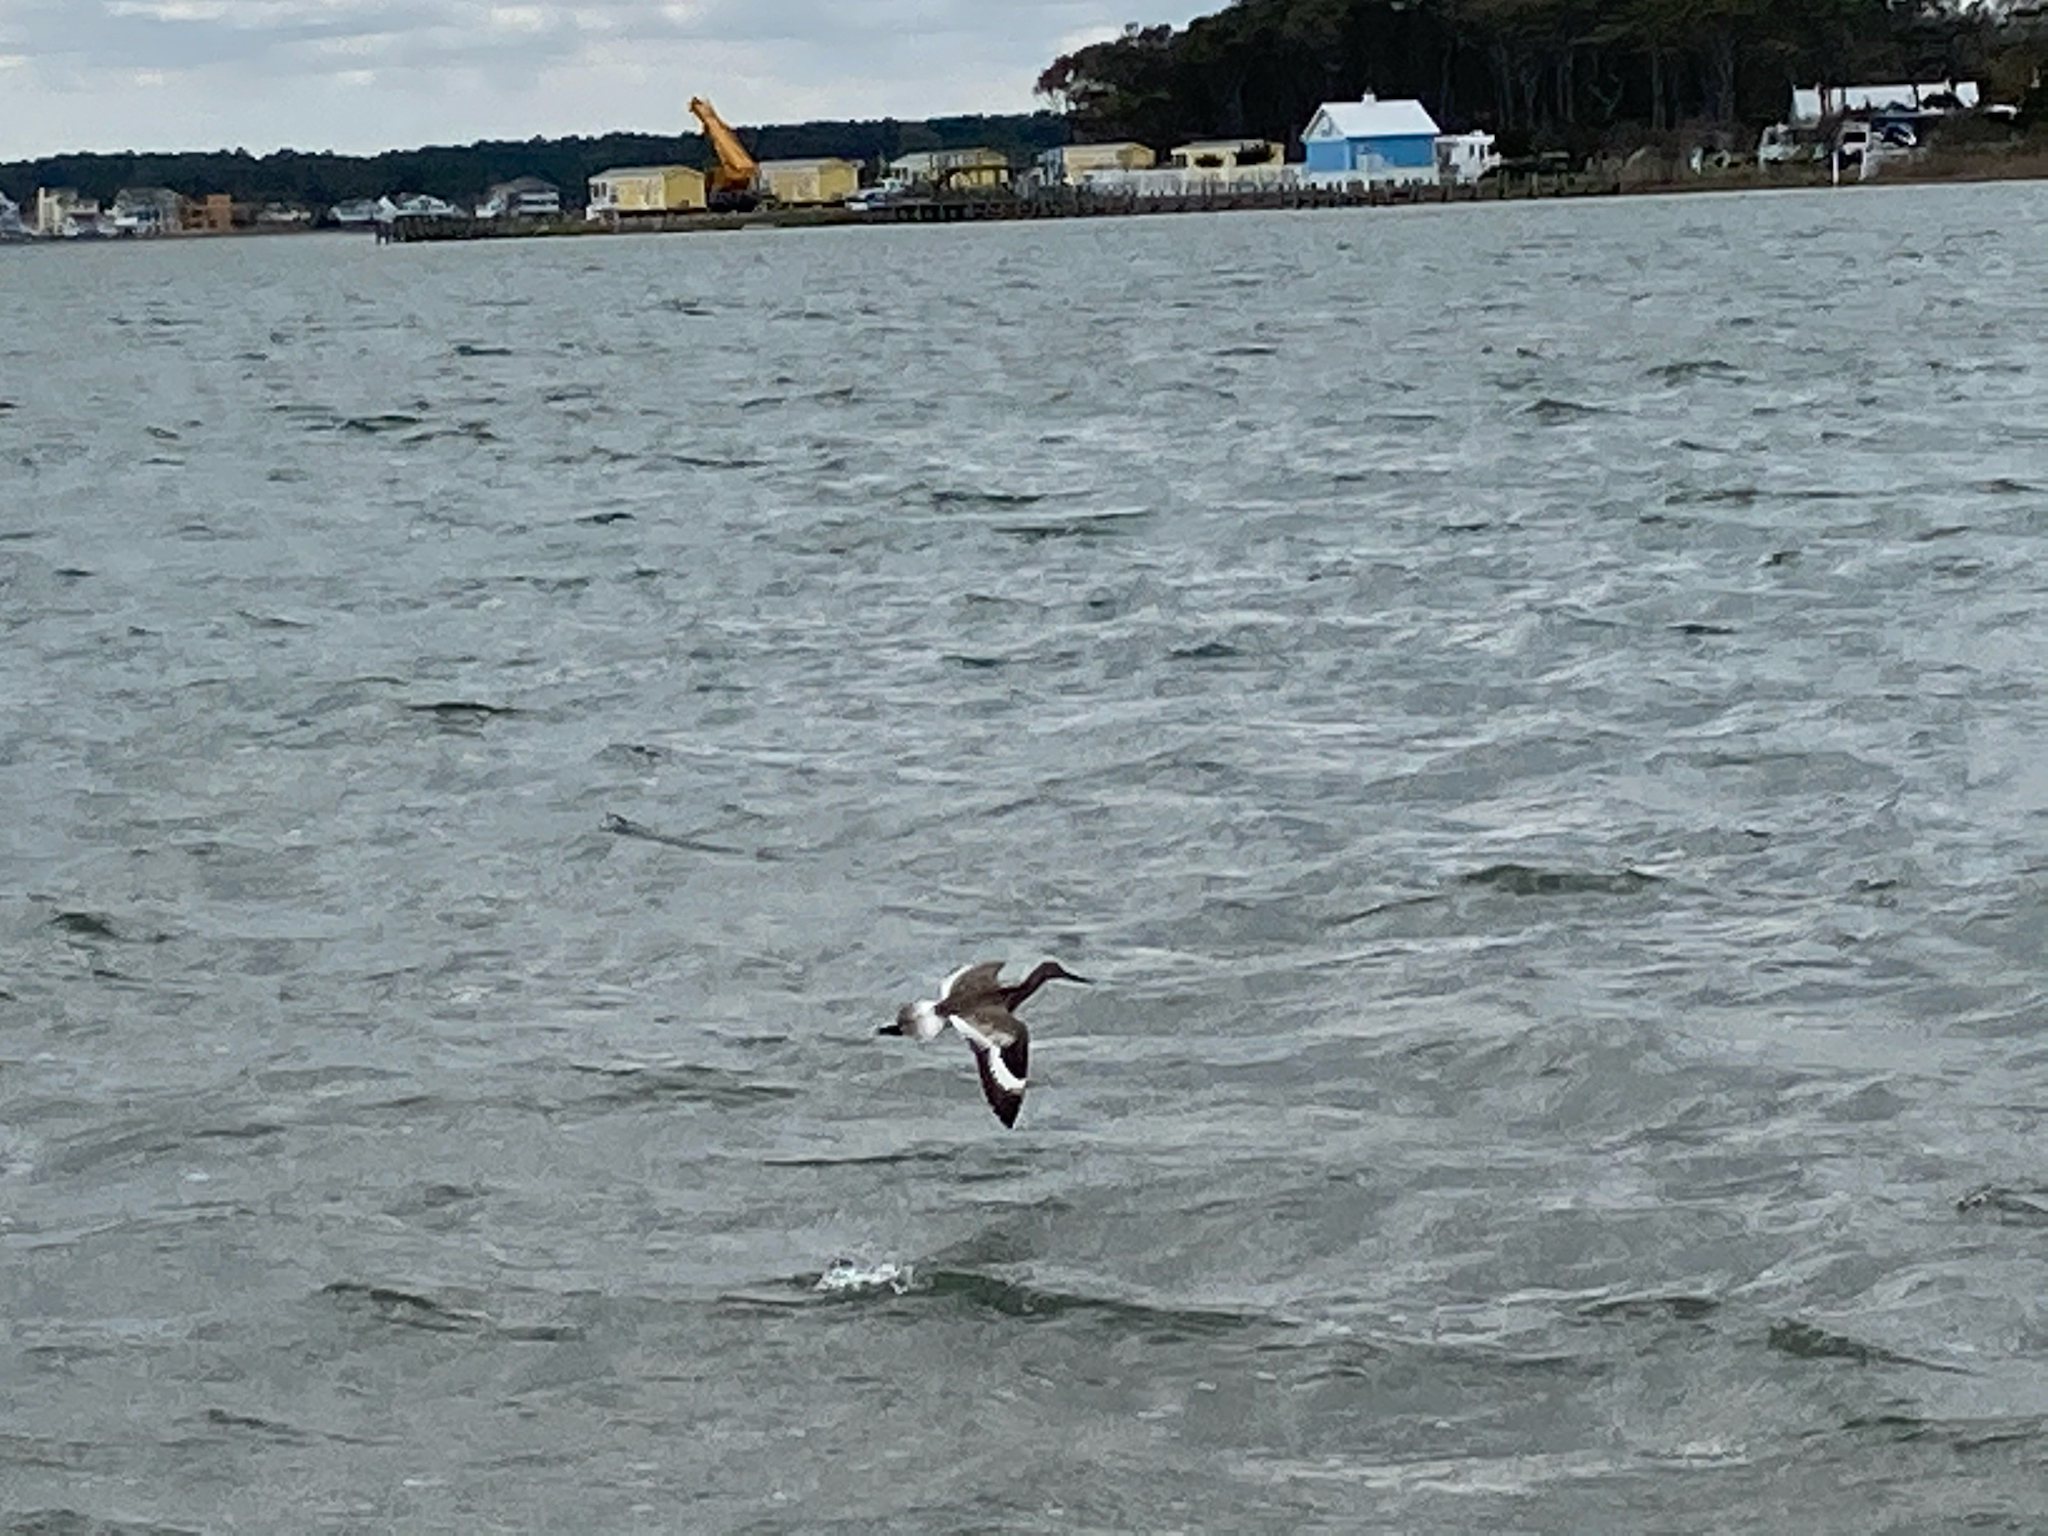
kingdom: Animalia
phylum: Chordata
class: Aves
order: Charadriiformes
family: Scolopacidae
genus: Tringa
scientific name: Tringa semipalmata
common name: Willet
